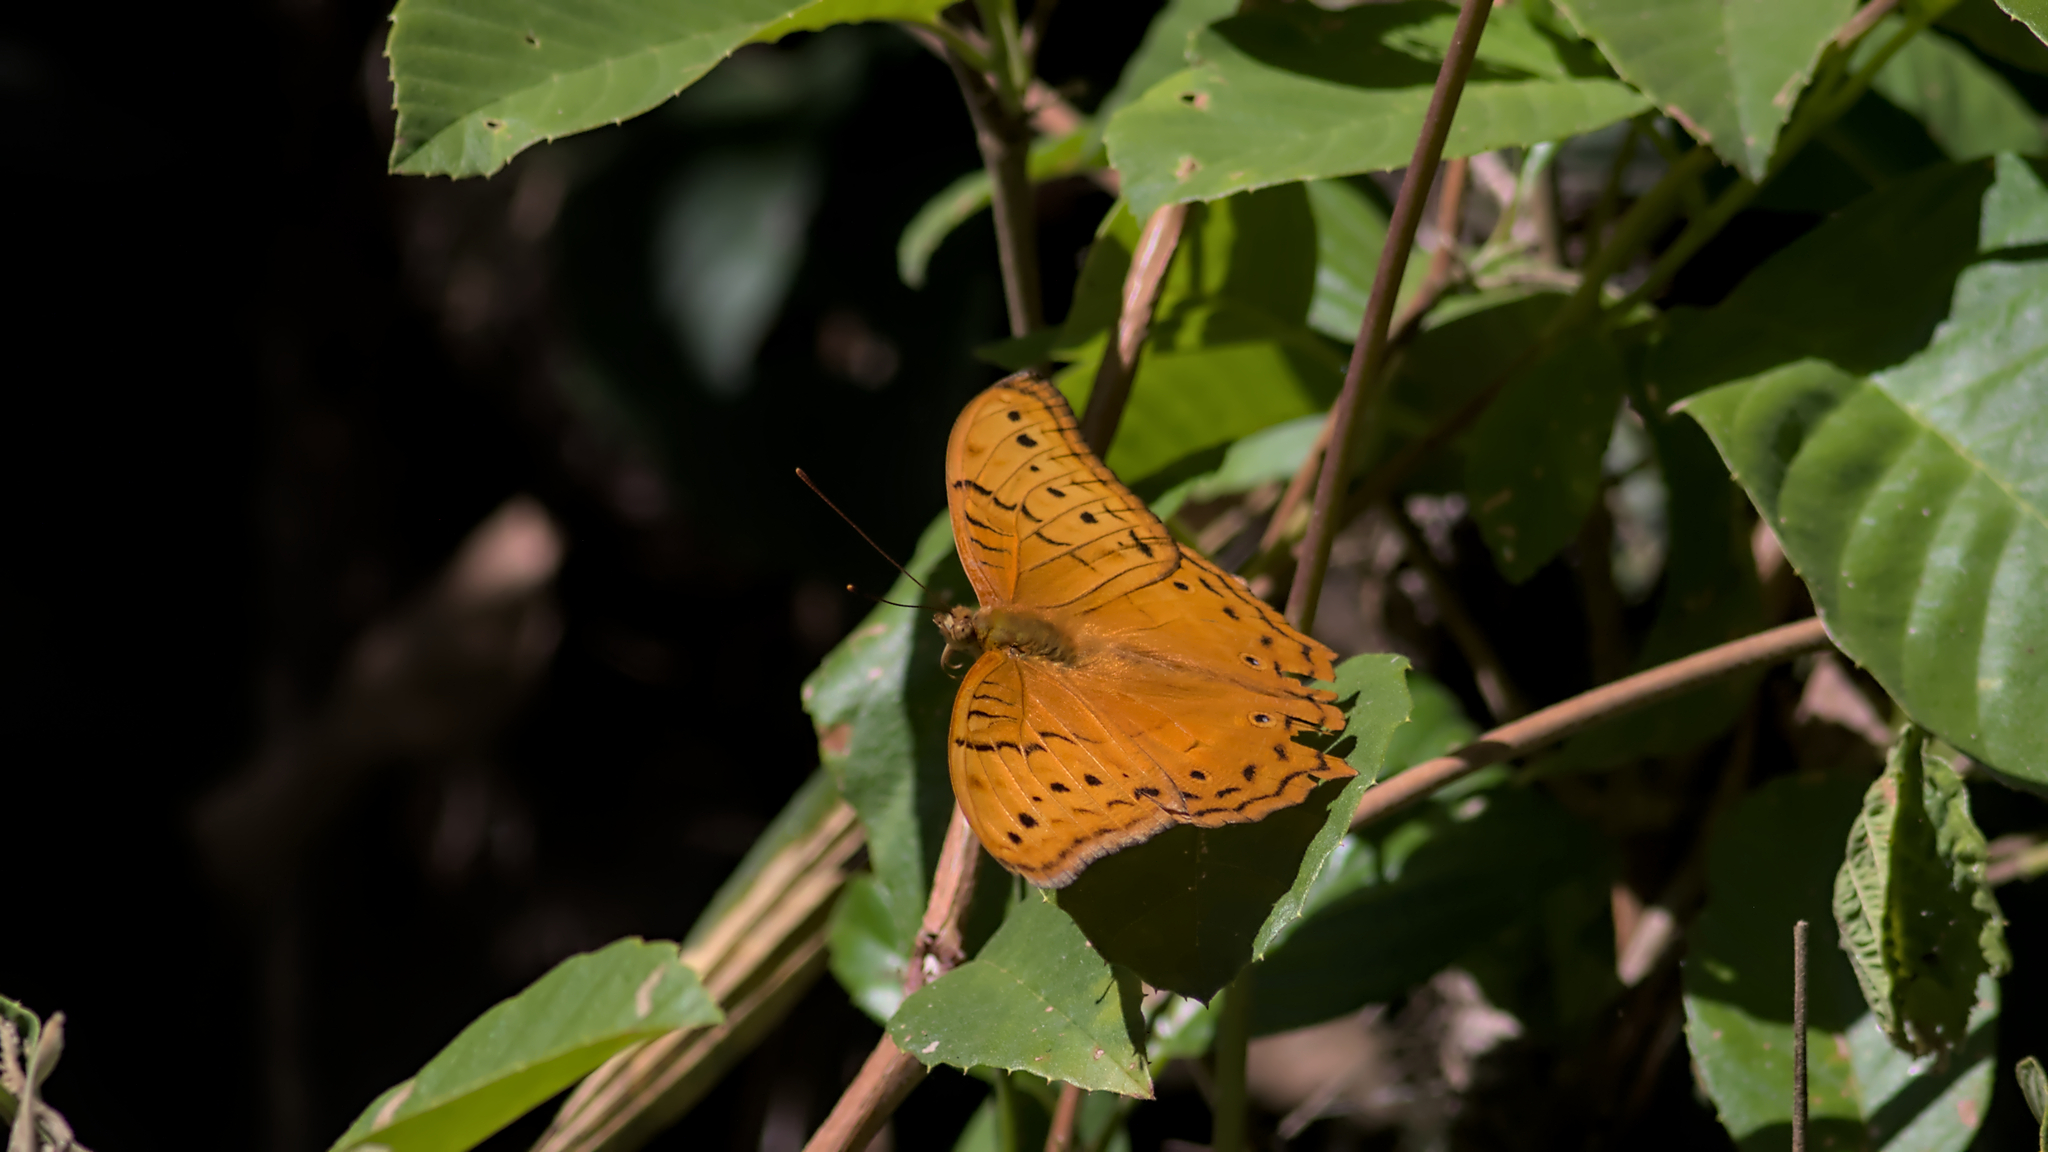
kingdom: Animalia
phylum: Arthropoda
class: Insecta
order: Lepidoptera
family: Nymphalidae
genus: Vindula
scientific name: Vindula arsinoe
